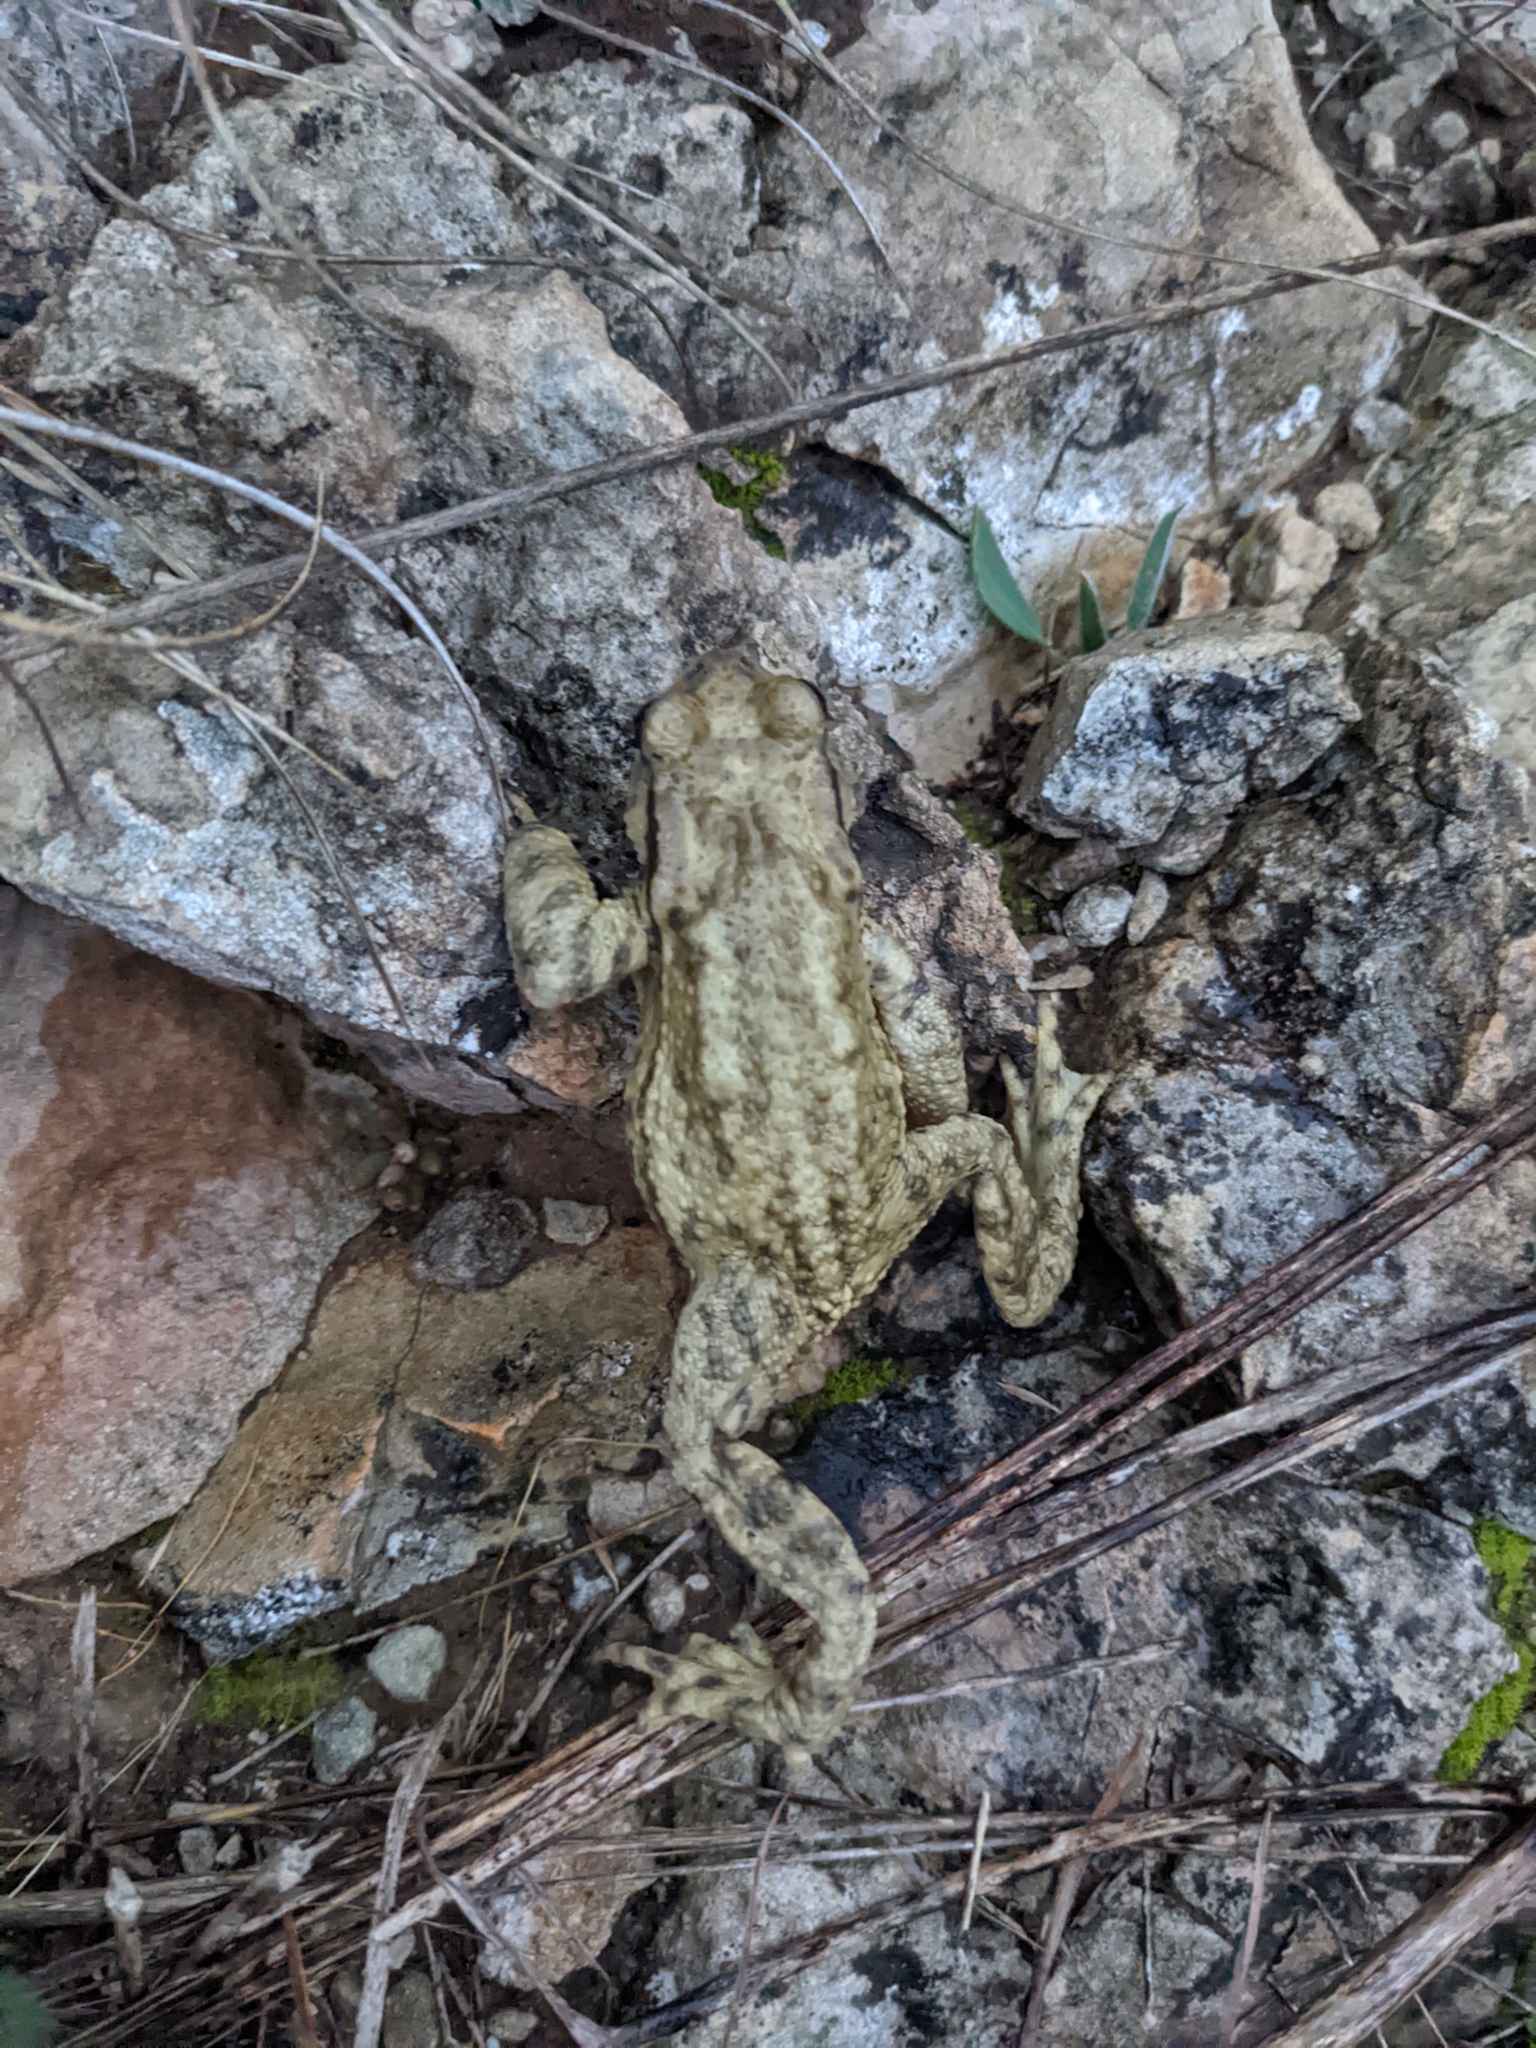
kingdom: Animalia
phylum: Chordata
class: Amphibia
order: Anura
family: Bufonidae
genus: Bufo
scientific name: Bufo spinosus
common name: Western common toad
